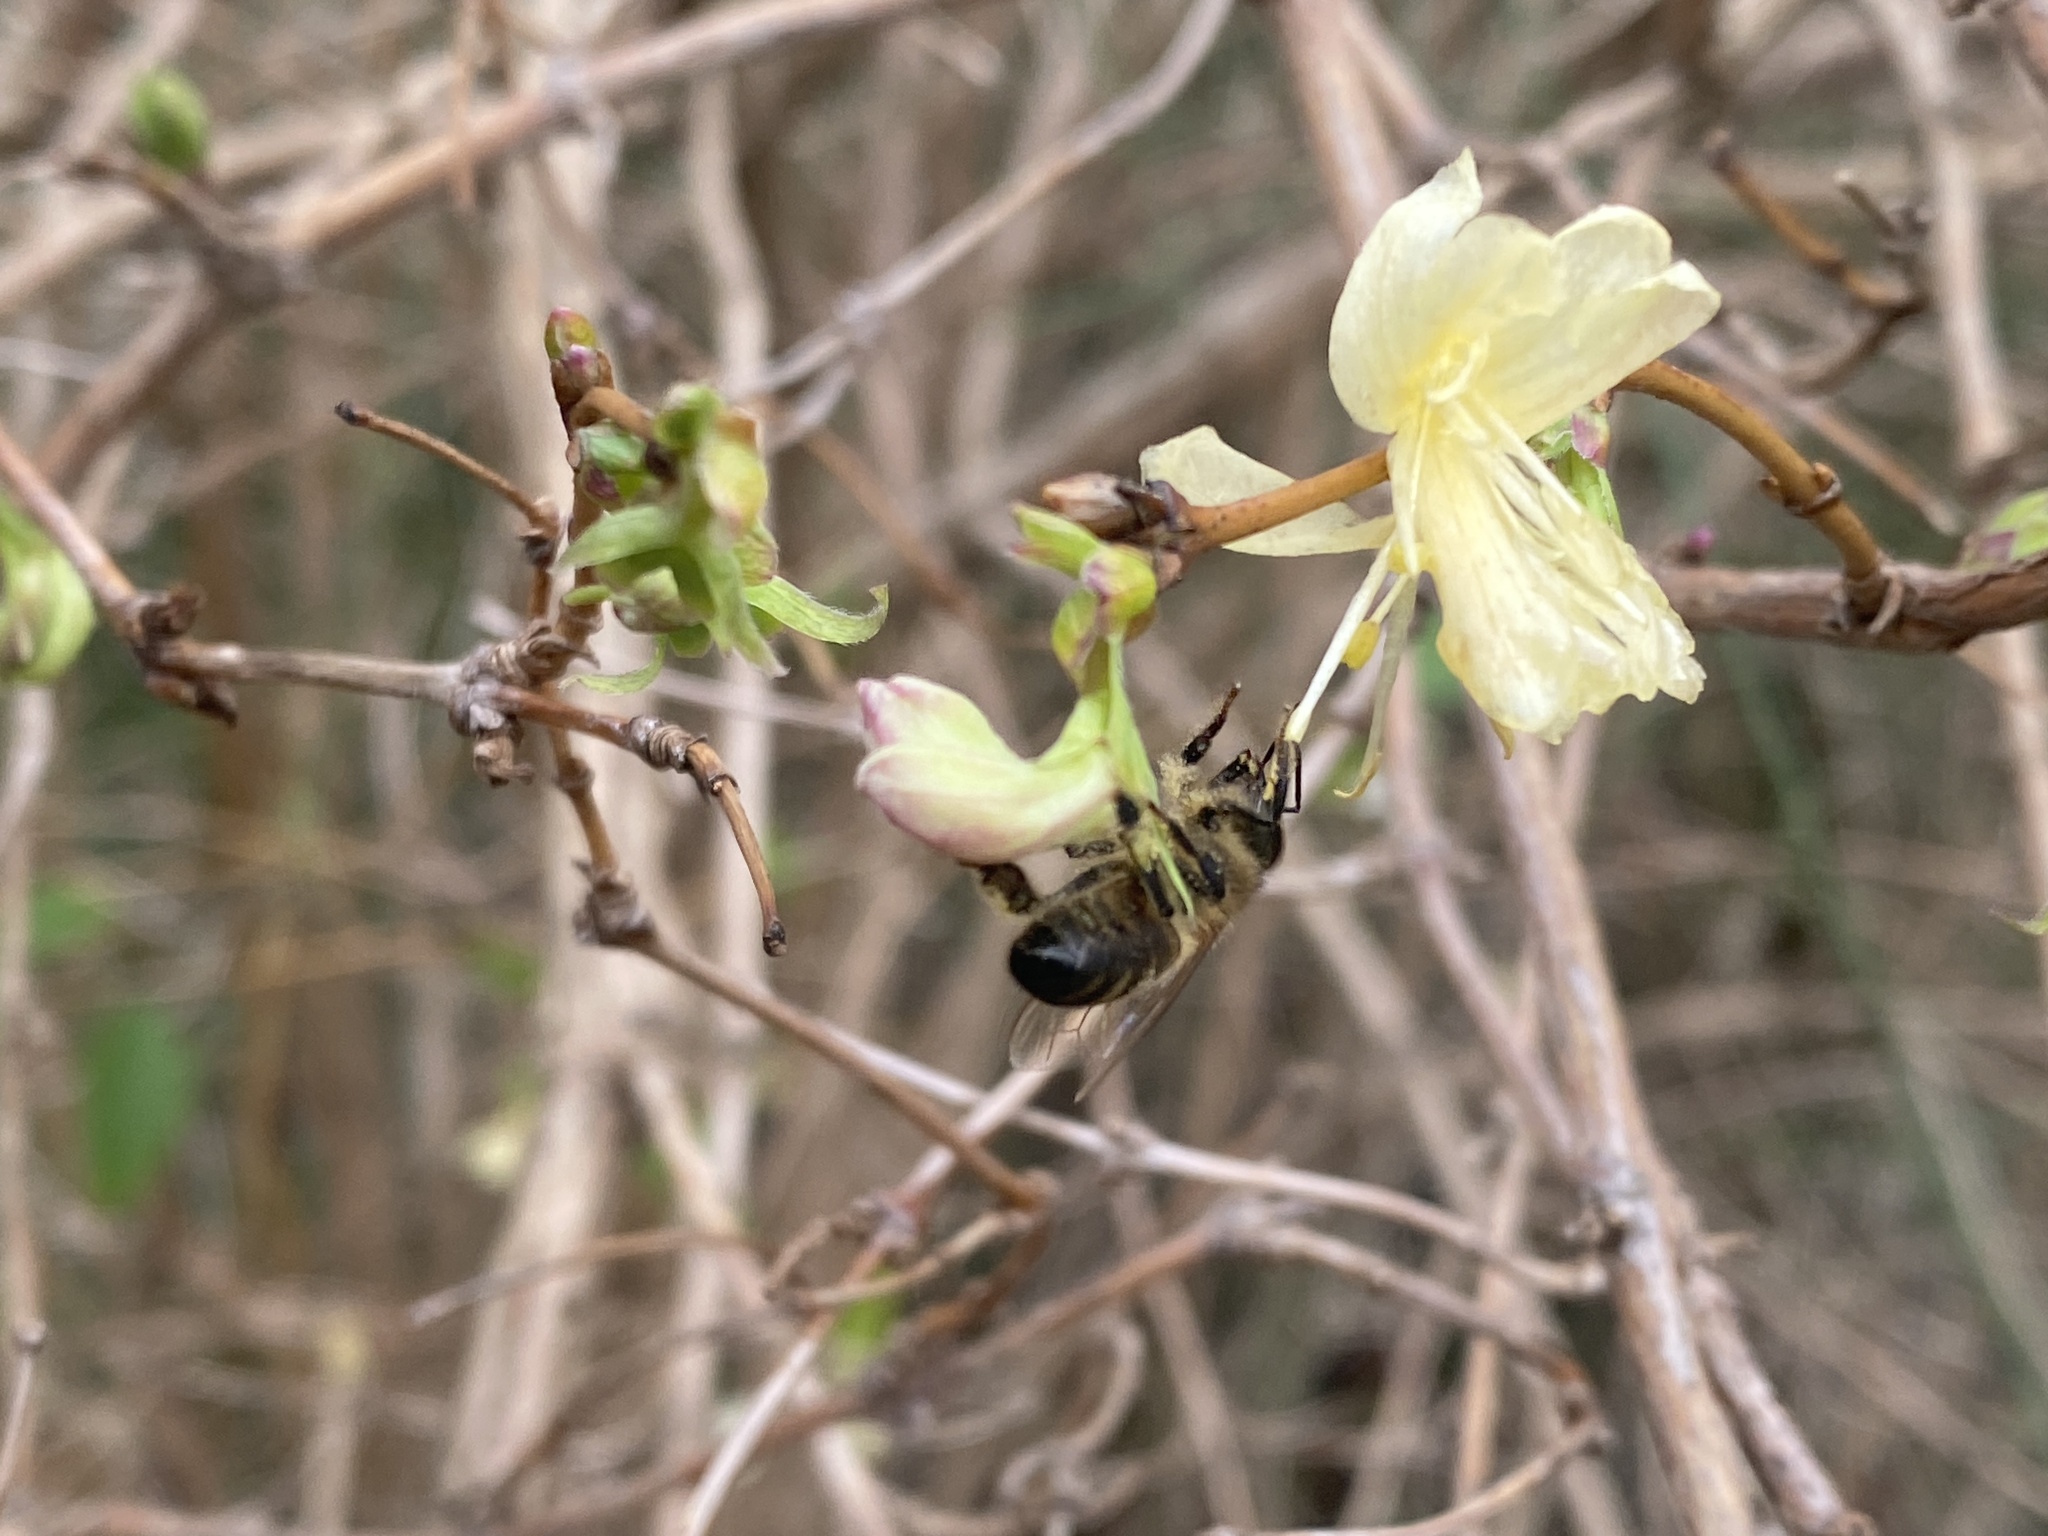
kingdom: Animalia
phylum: Arthropoda
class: Insecta
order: Hymenoptera
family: Apidae
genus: Apis
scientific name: Apis mellifera
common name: Honey bee
